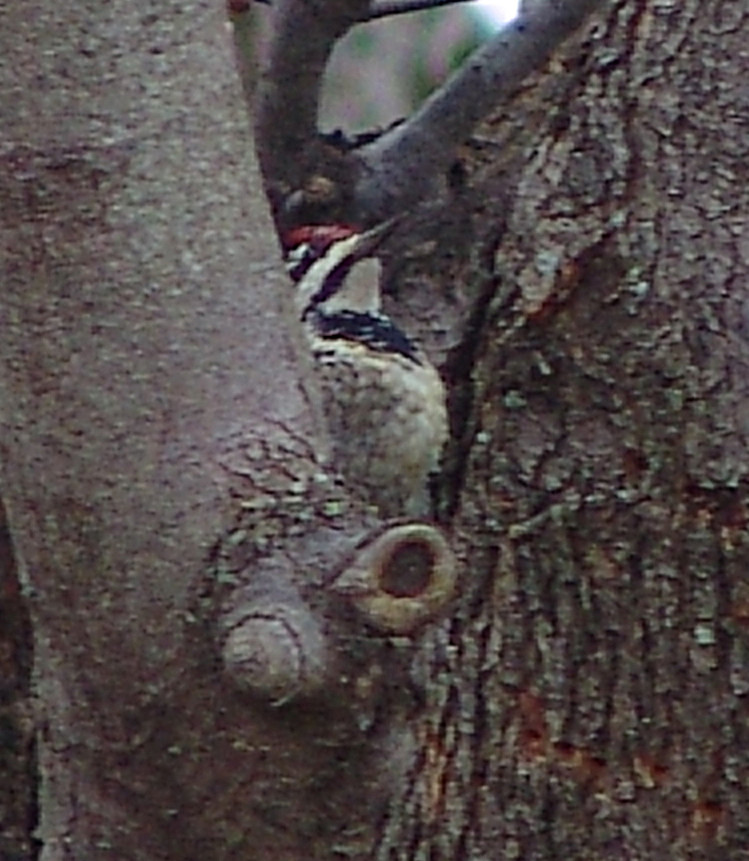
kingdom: Animalia
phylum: Chordata
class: Aves
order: Piciformes
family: Picidae
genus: Sphyrapicus
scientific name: Sphyrapicus varius
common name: Yellow-bellied sapsucker
